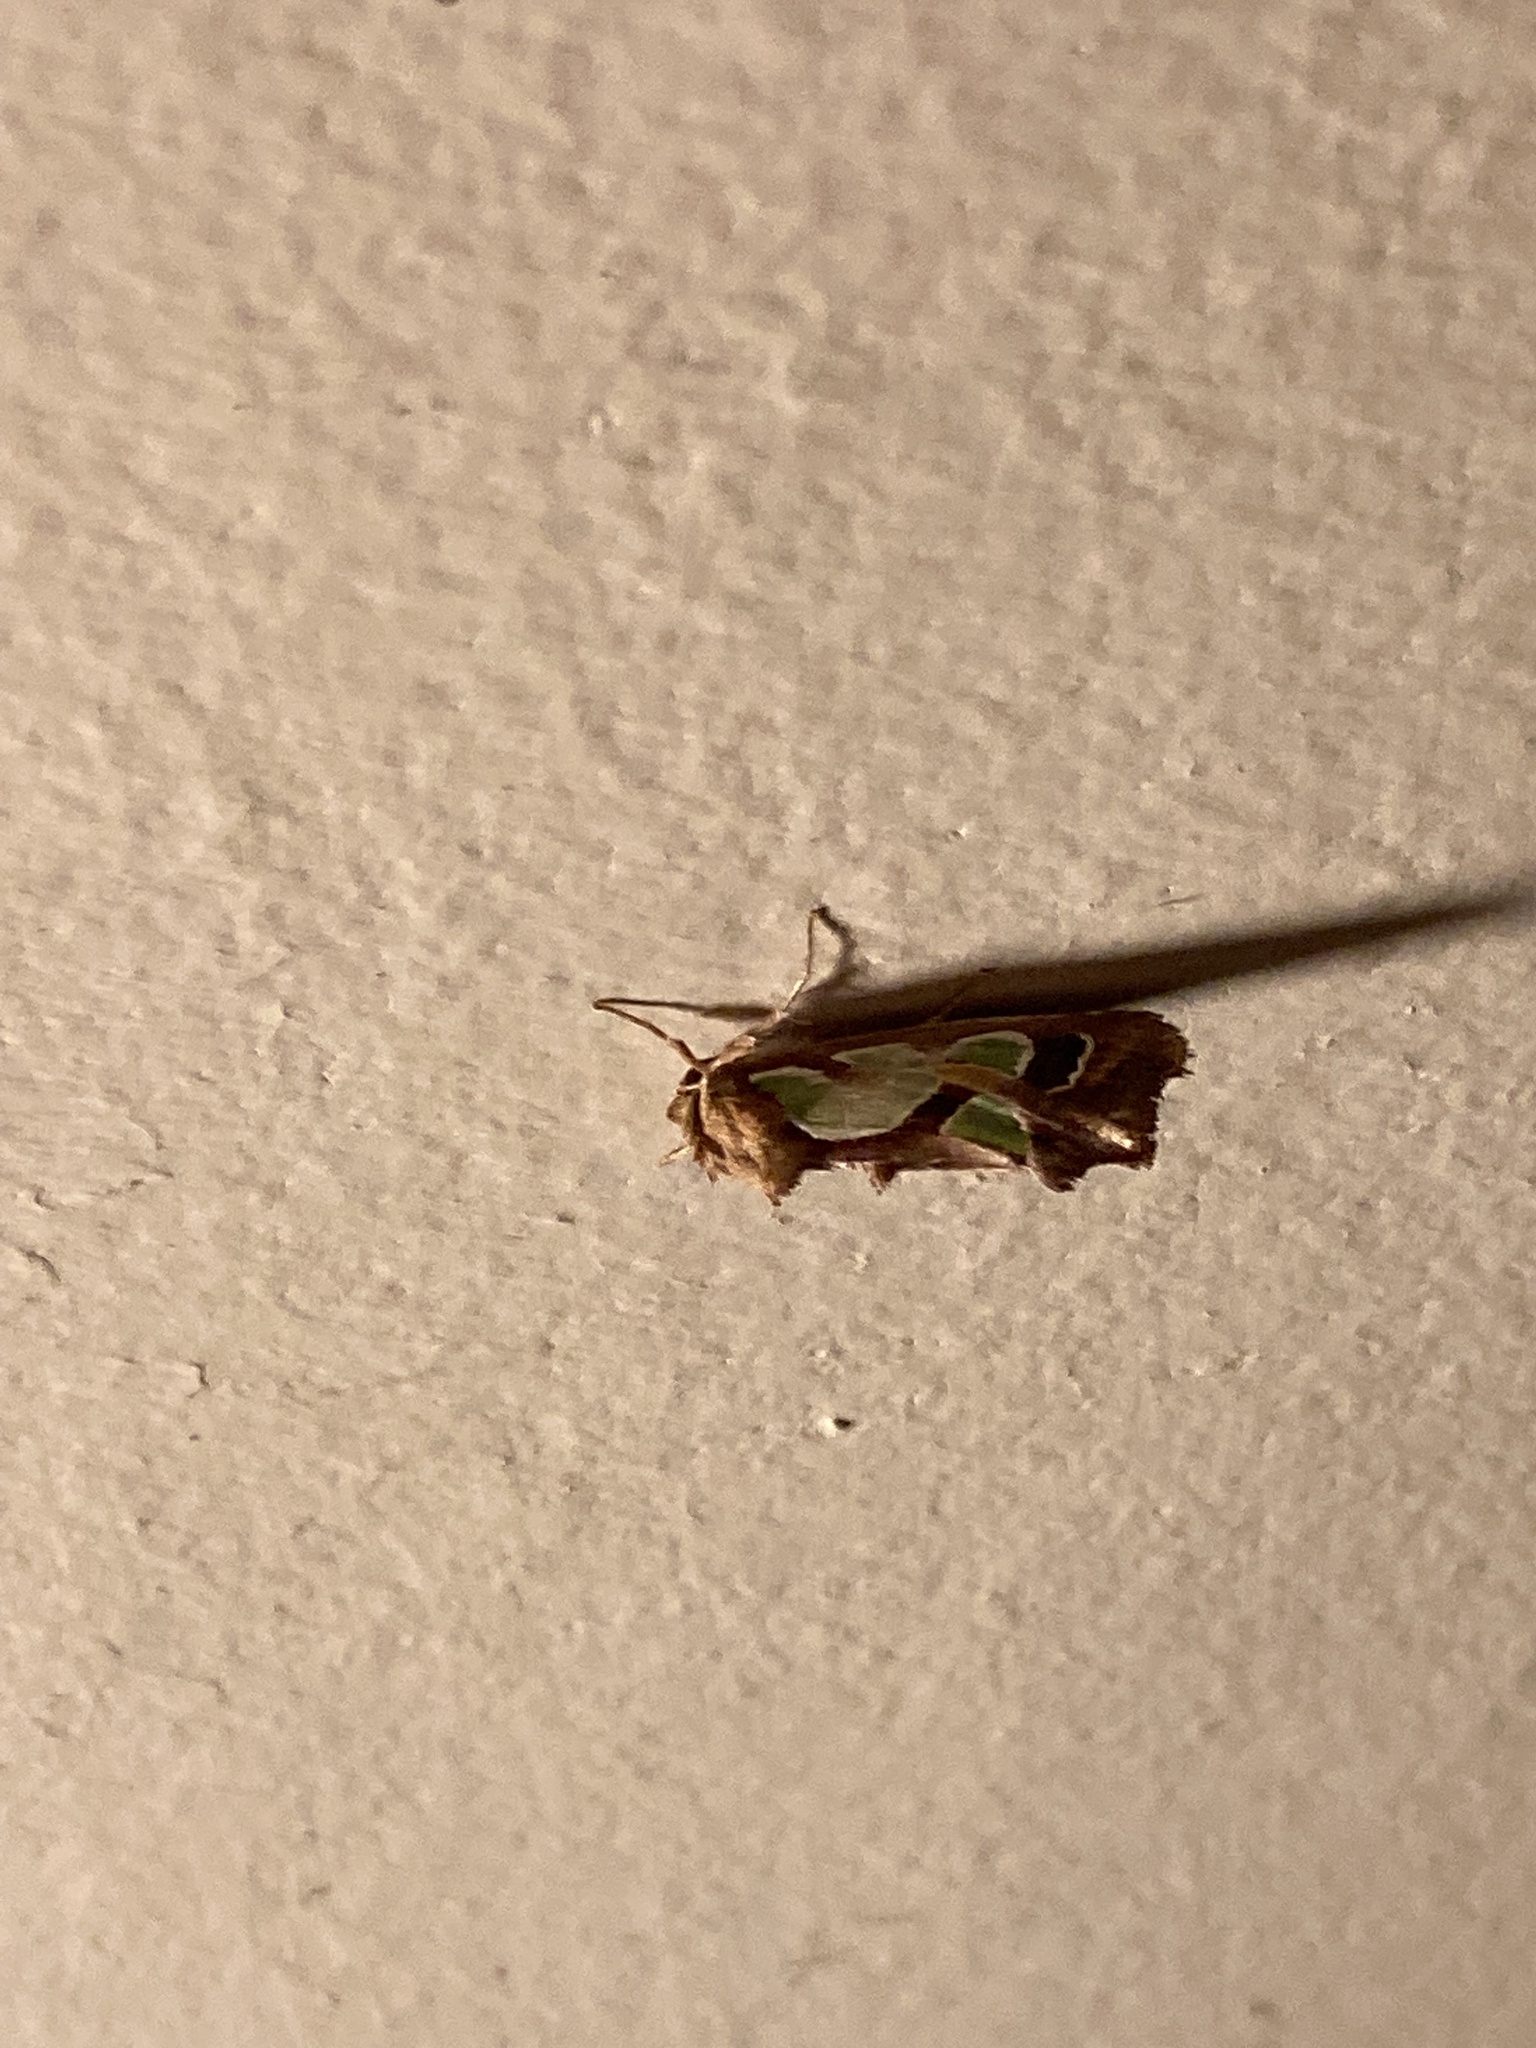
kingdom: Animalia
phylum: Arthropoda
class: Insecta
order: Lepidoptera
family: Noctuidae
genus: Cosmodes
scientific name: Cosmodes elegans
